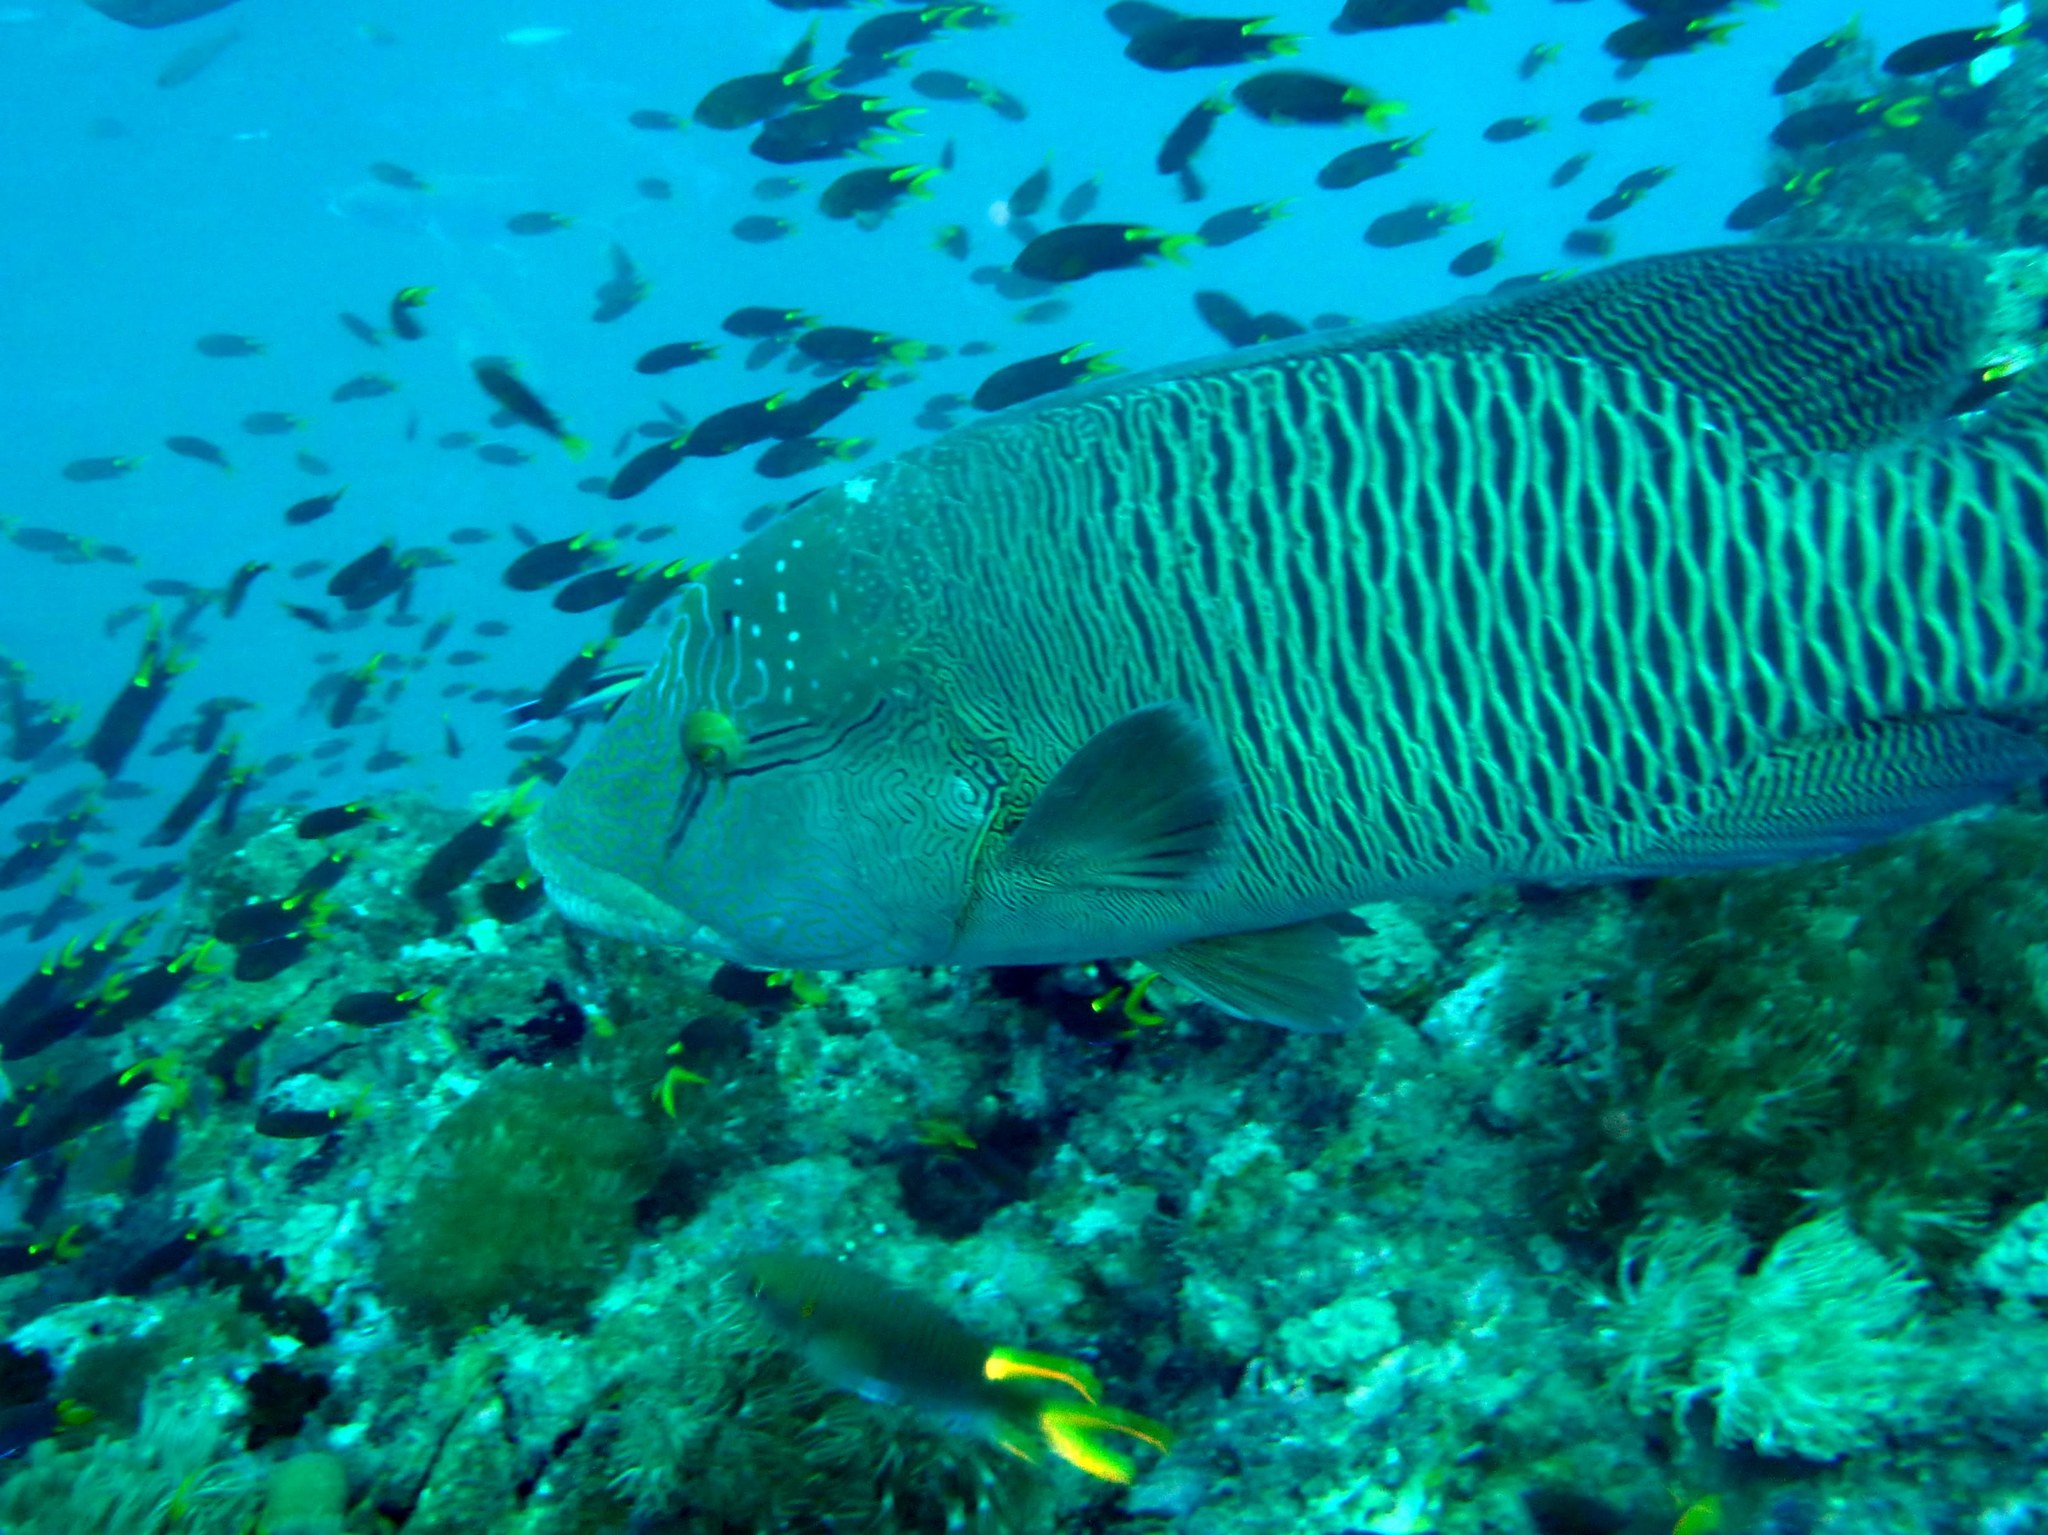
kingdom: Animalia
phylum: Chordata
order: Perciformes
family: Labridae
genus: Cheilinus
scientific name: Cheilinus undulatus
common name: Humphead wrasse
